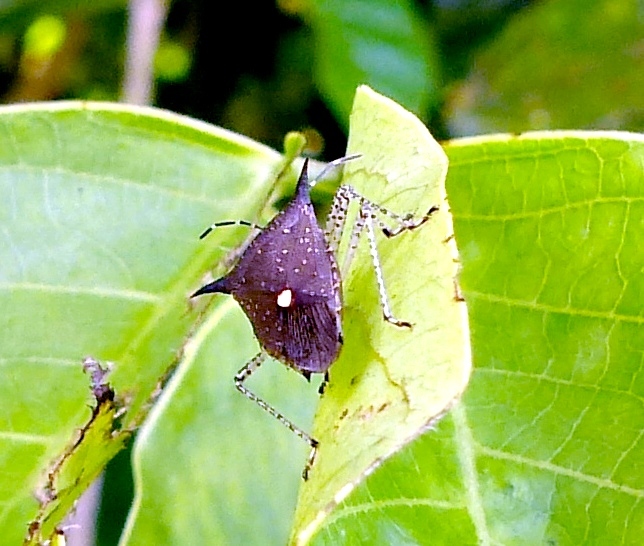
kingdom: Animalia
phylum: Arthropoda
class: Insecta
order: Hemiptera
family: Pentatomidae
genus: Proxys
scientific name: Proxys albopunctulatus
